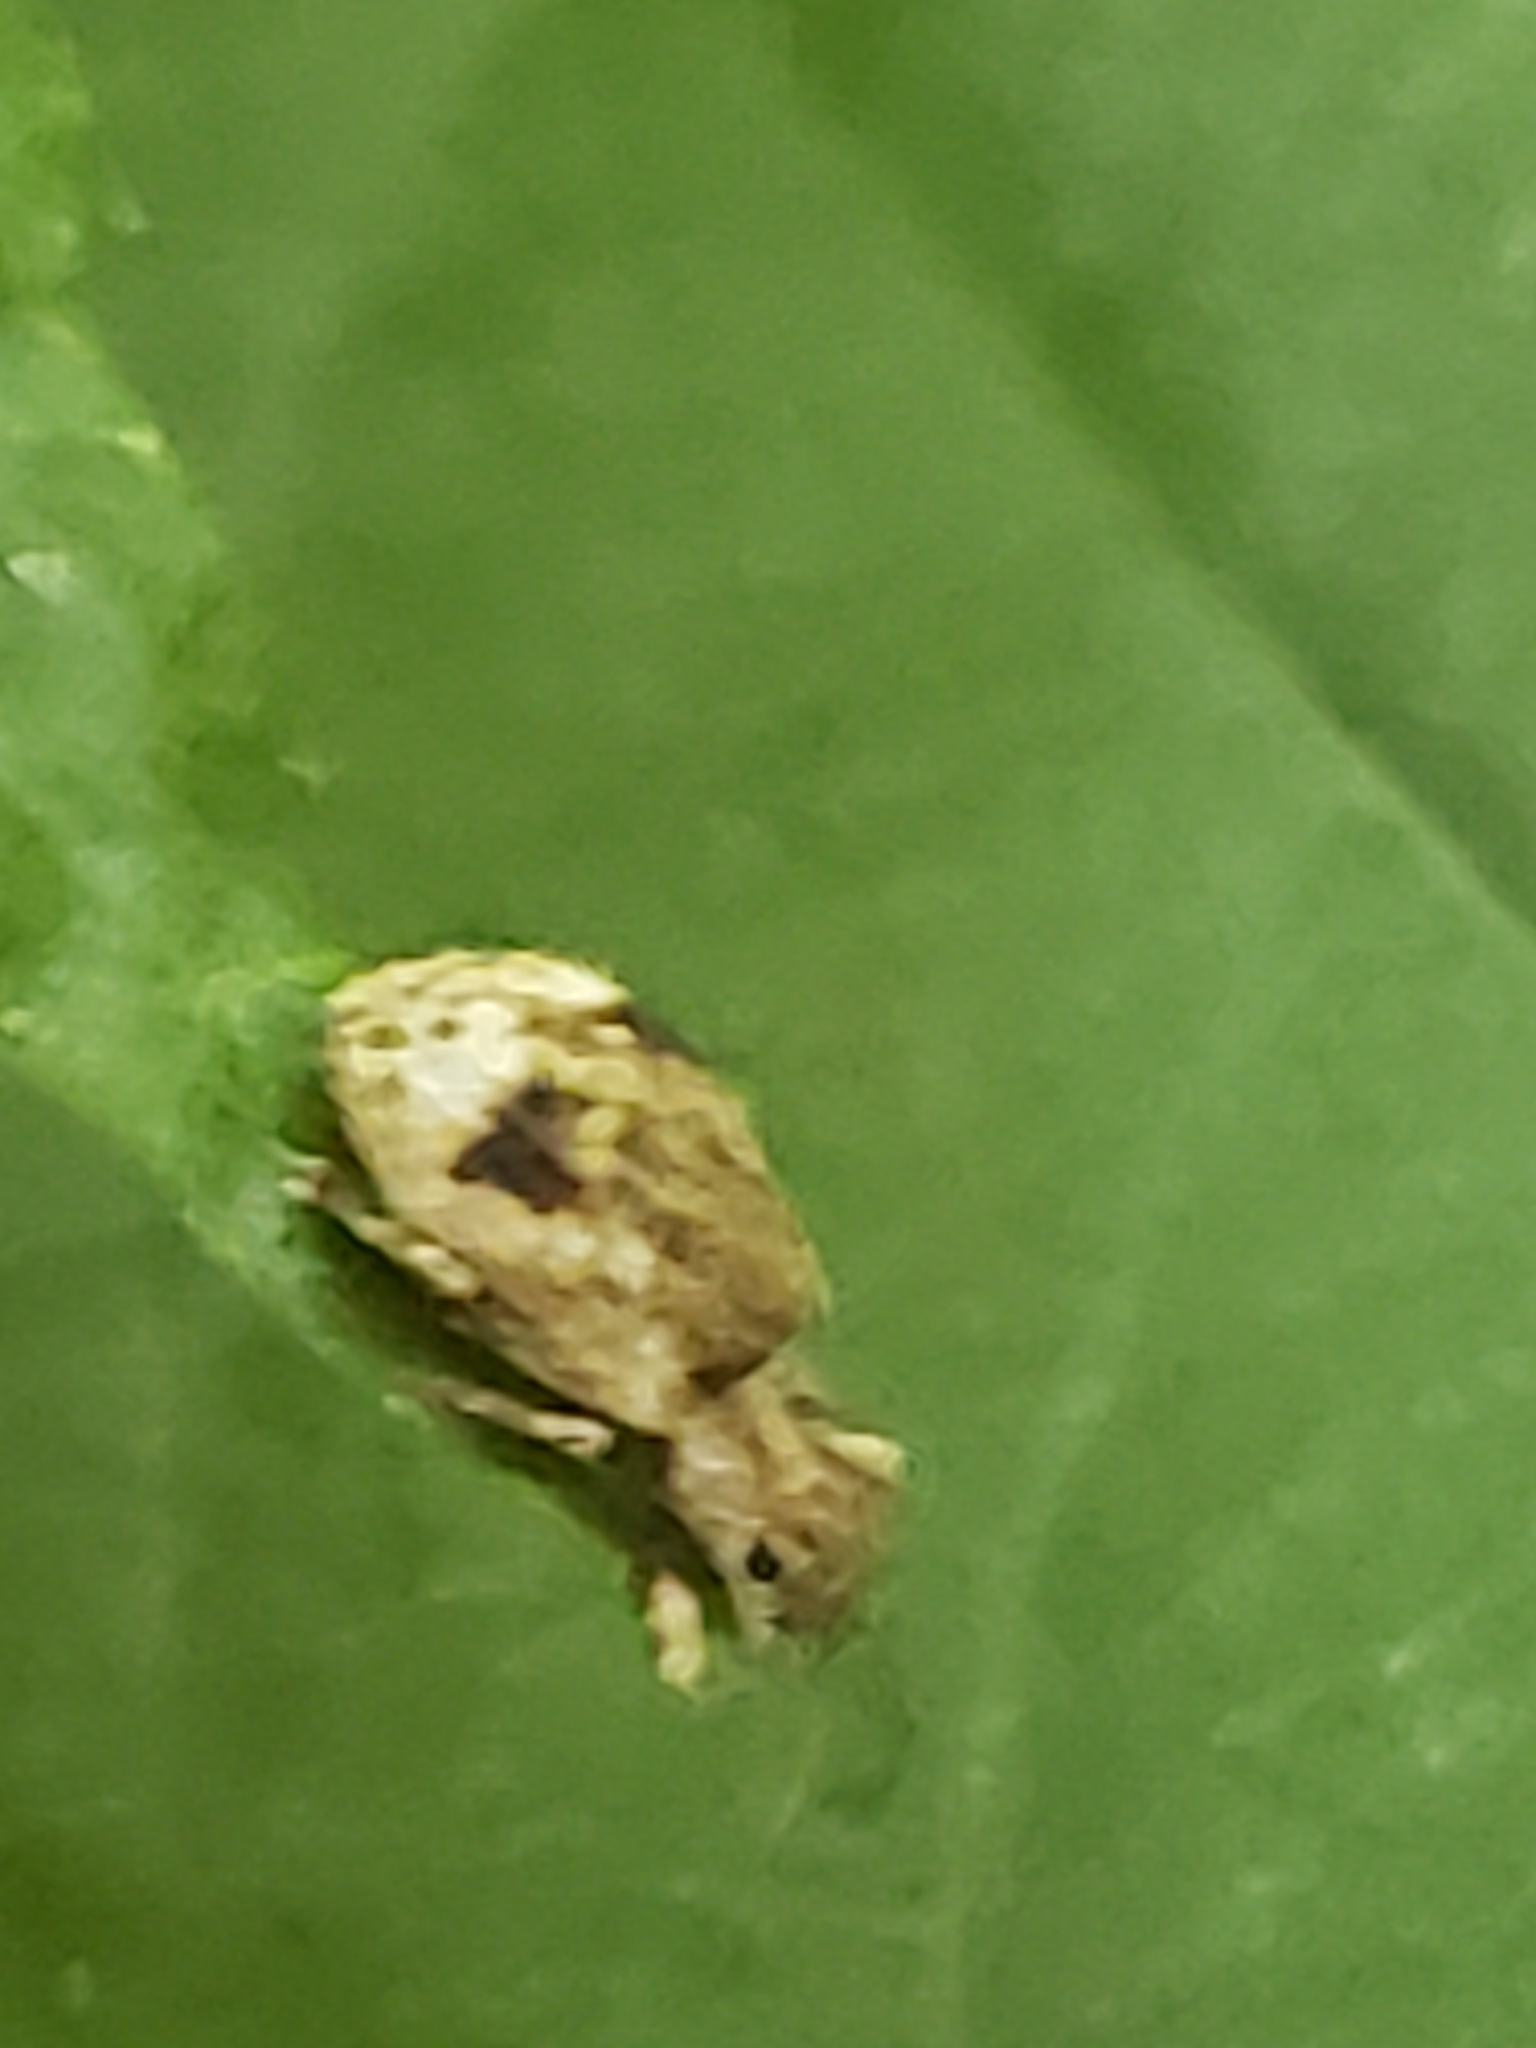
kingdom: Animalia
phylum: Arthropoda
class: Insecta
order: Coleoptera
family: Curculionidae
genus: Pseudoedophrys
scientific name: Pseudoedophrys hilleri
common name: Weevil
